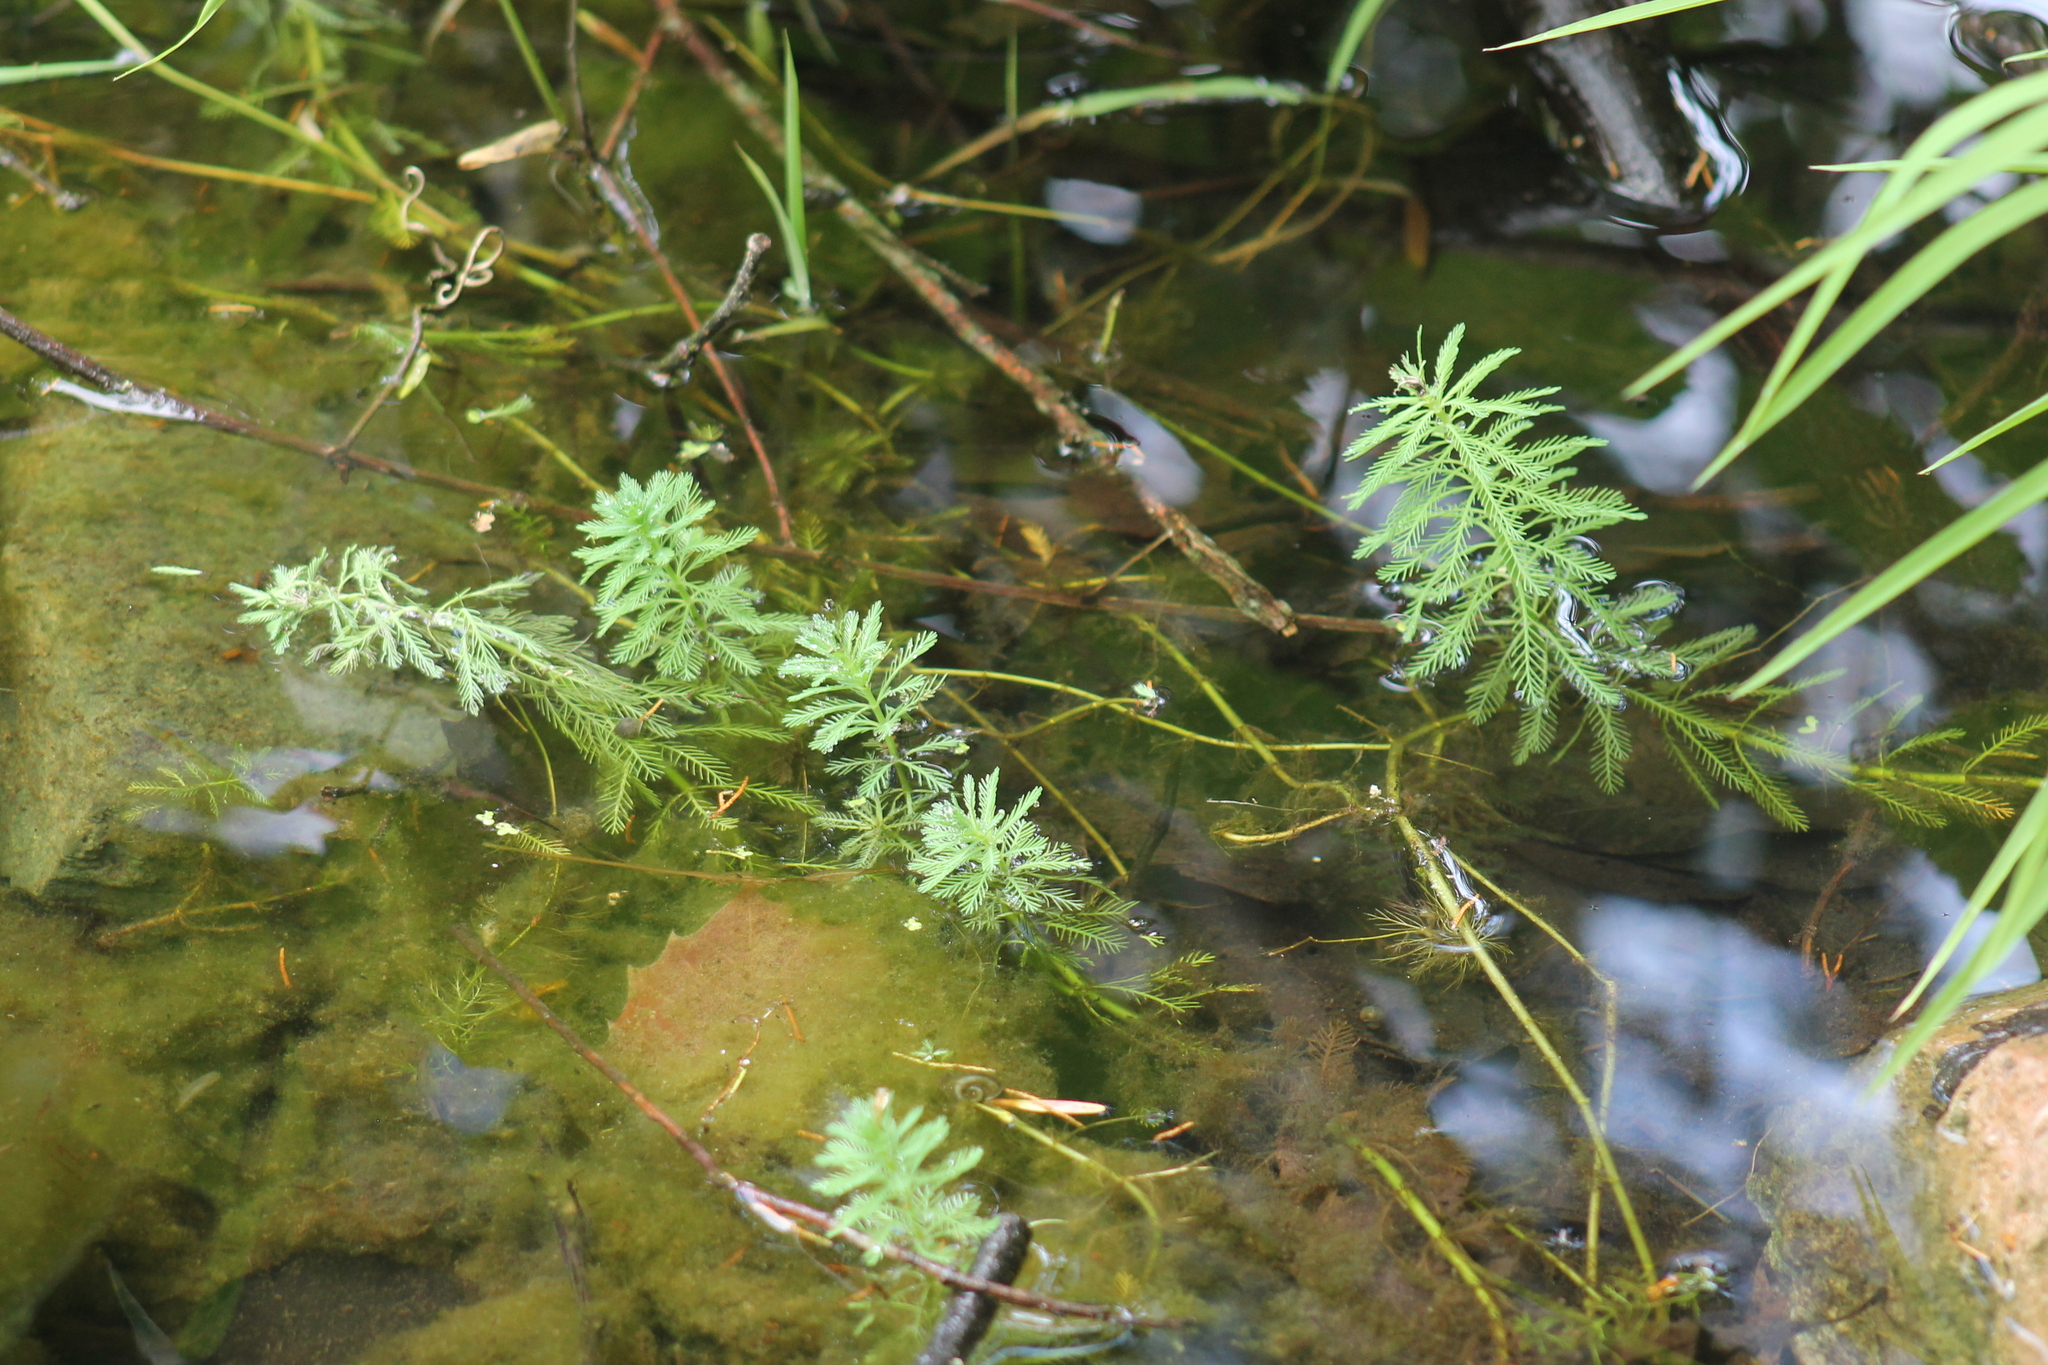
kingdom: Plantae
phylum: Tracheophyta
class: Magnoliopsida
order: Saxifragales
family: Haloragaceae
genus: Myriophyllum
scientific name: Myriophyllum aquaticum
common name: Parrot's feather
